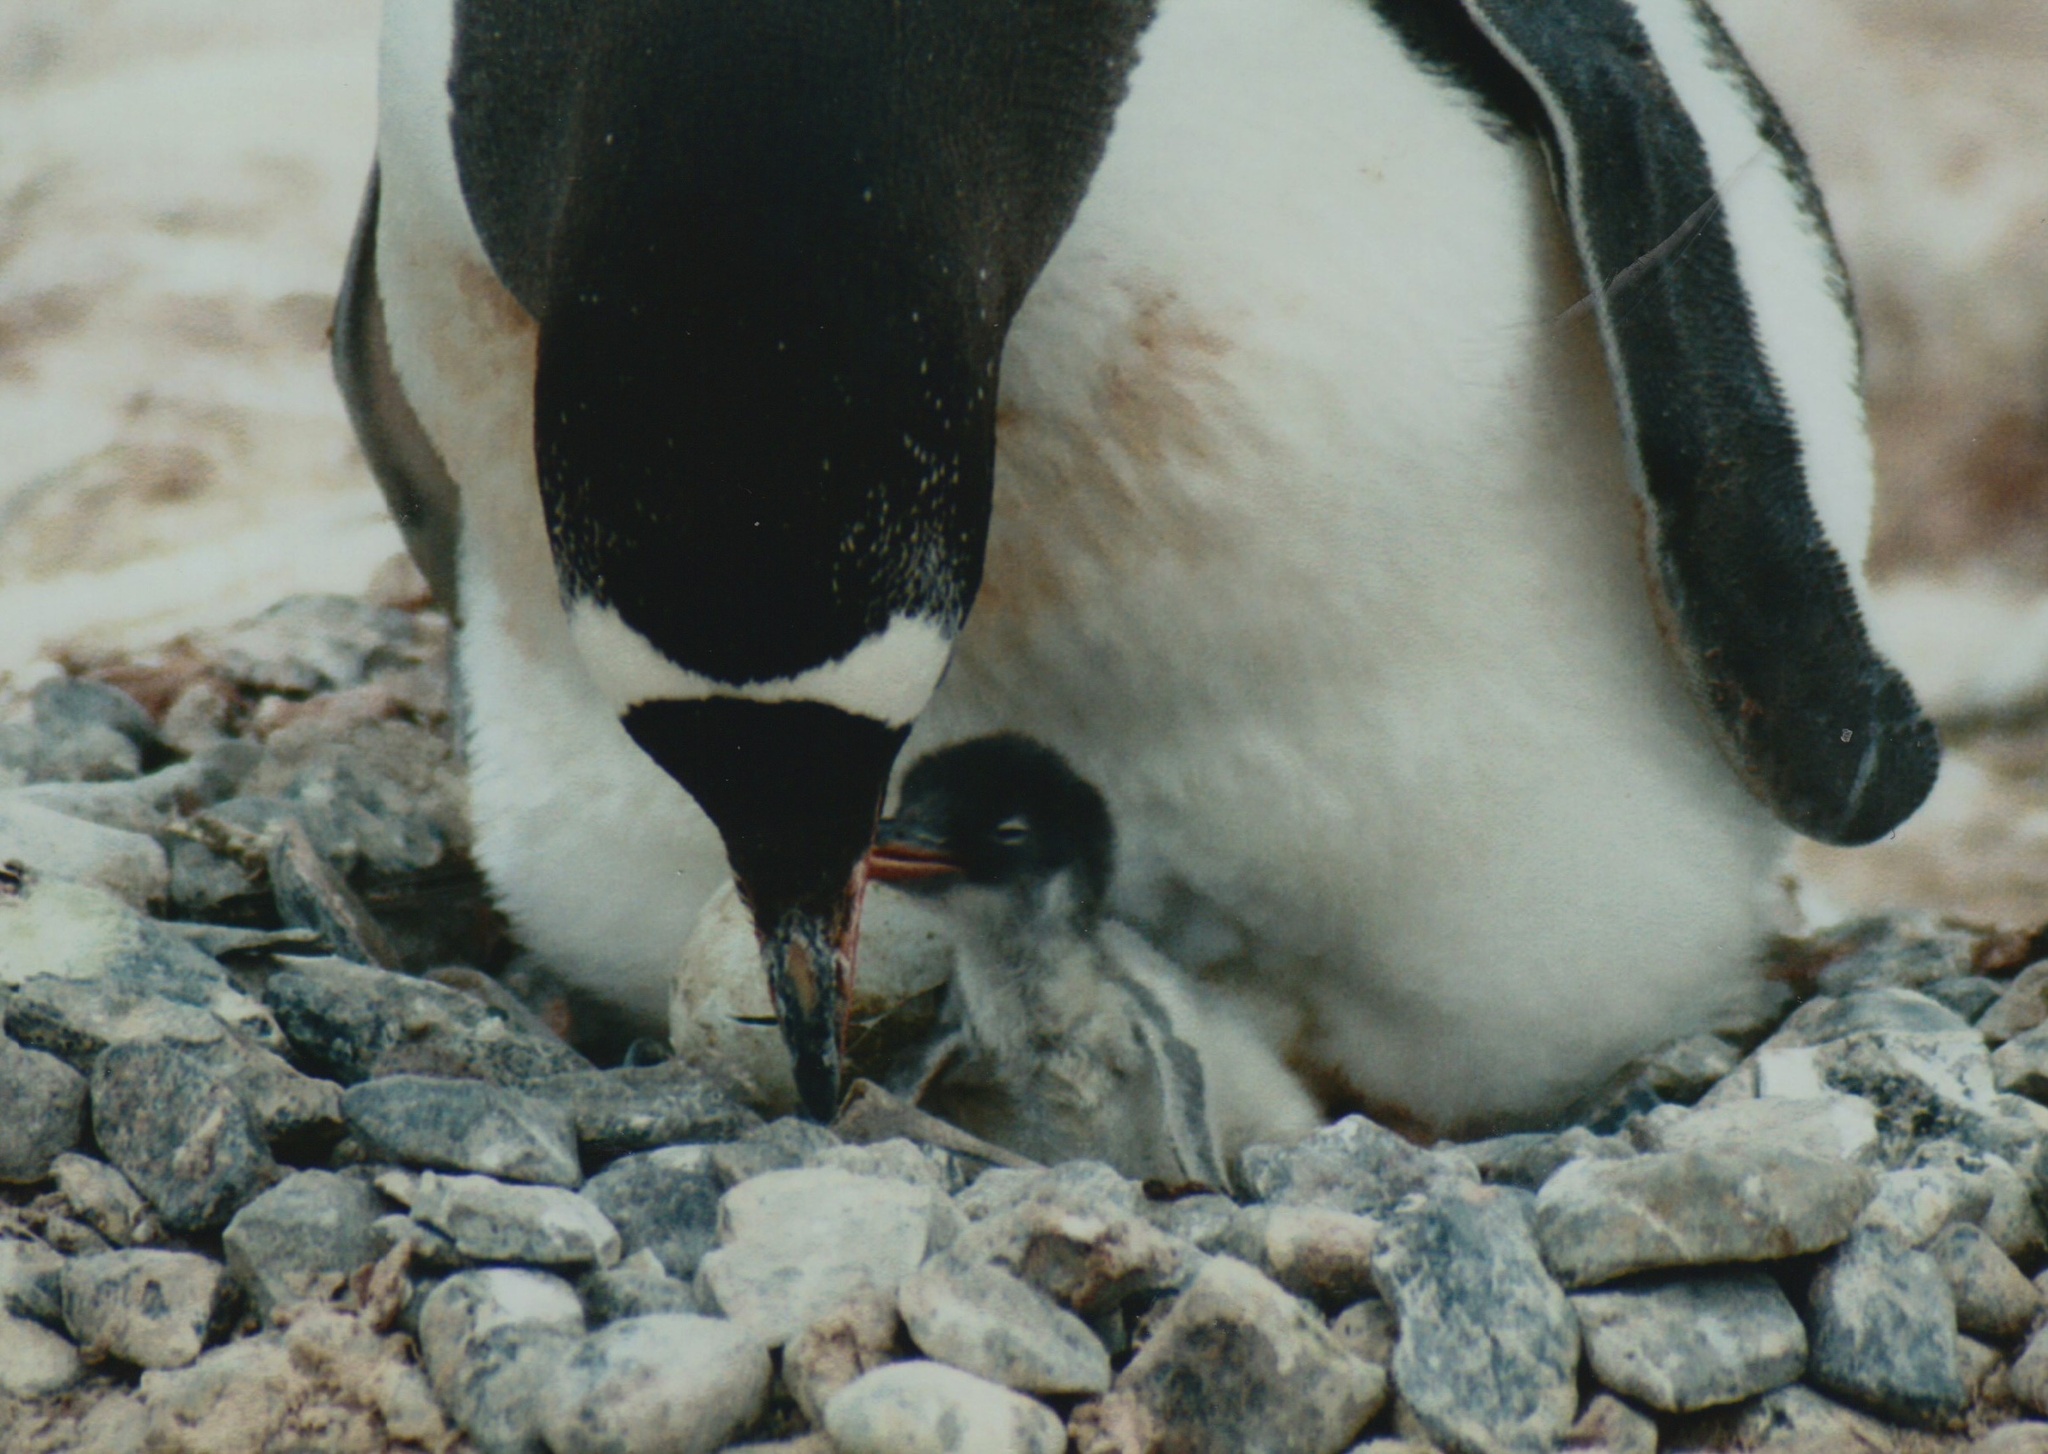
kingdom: Animalia
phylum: Chordata
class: Aves
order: Sphenisciformes
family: Spheniscidae
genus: Pygoscelis
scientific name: Pygoscelis papua
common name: Gentoo penguin
